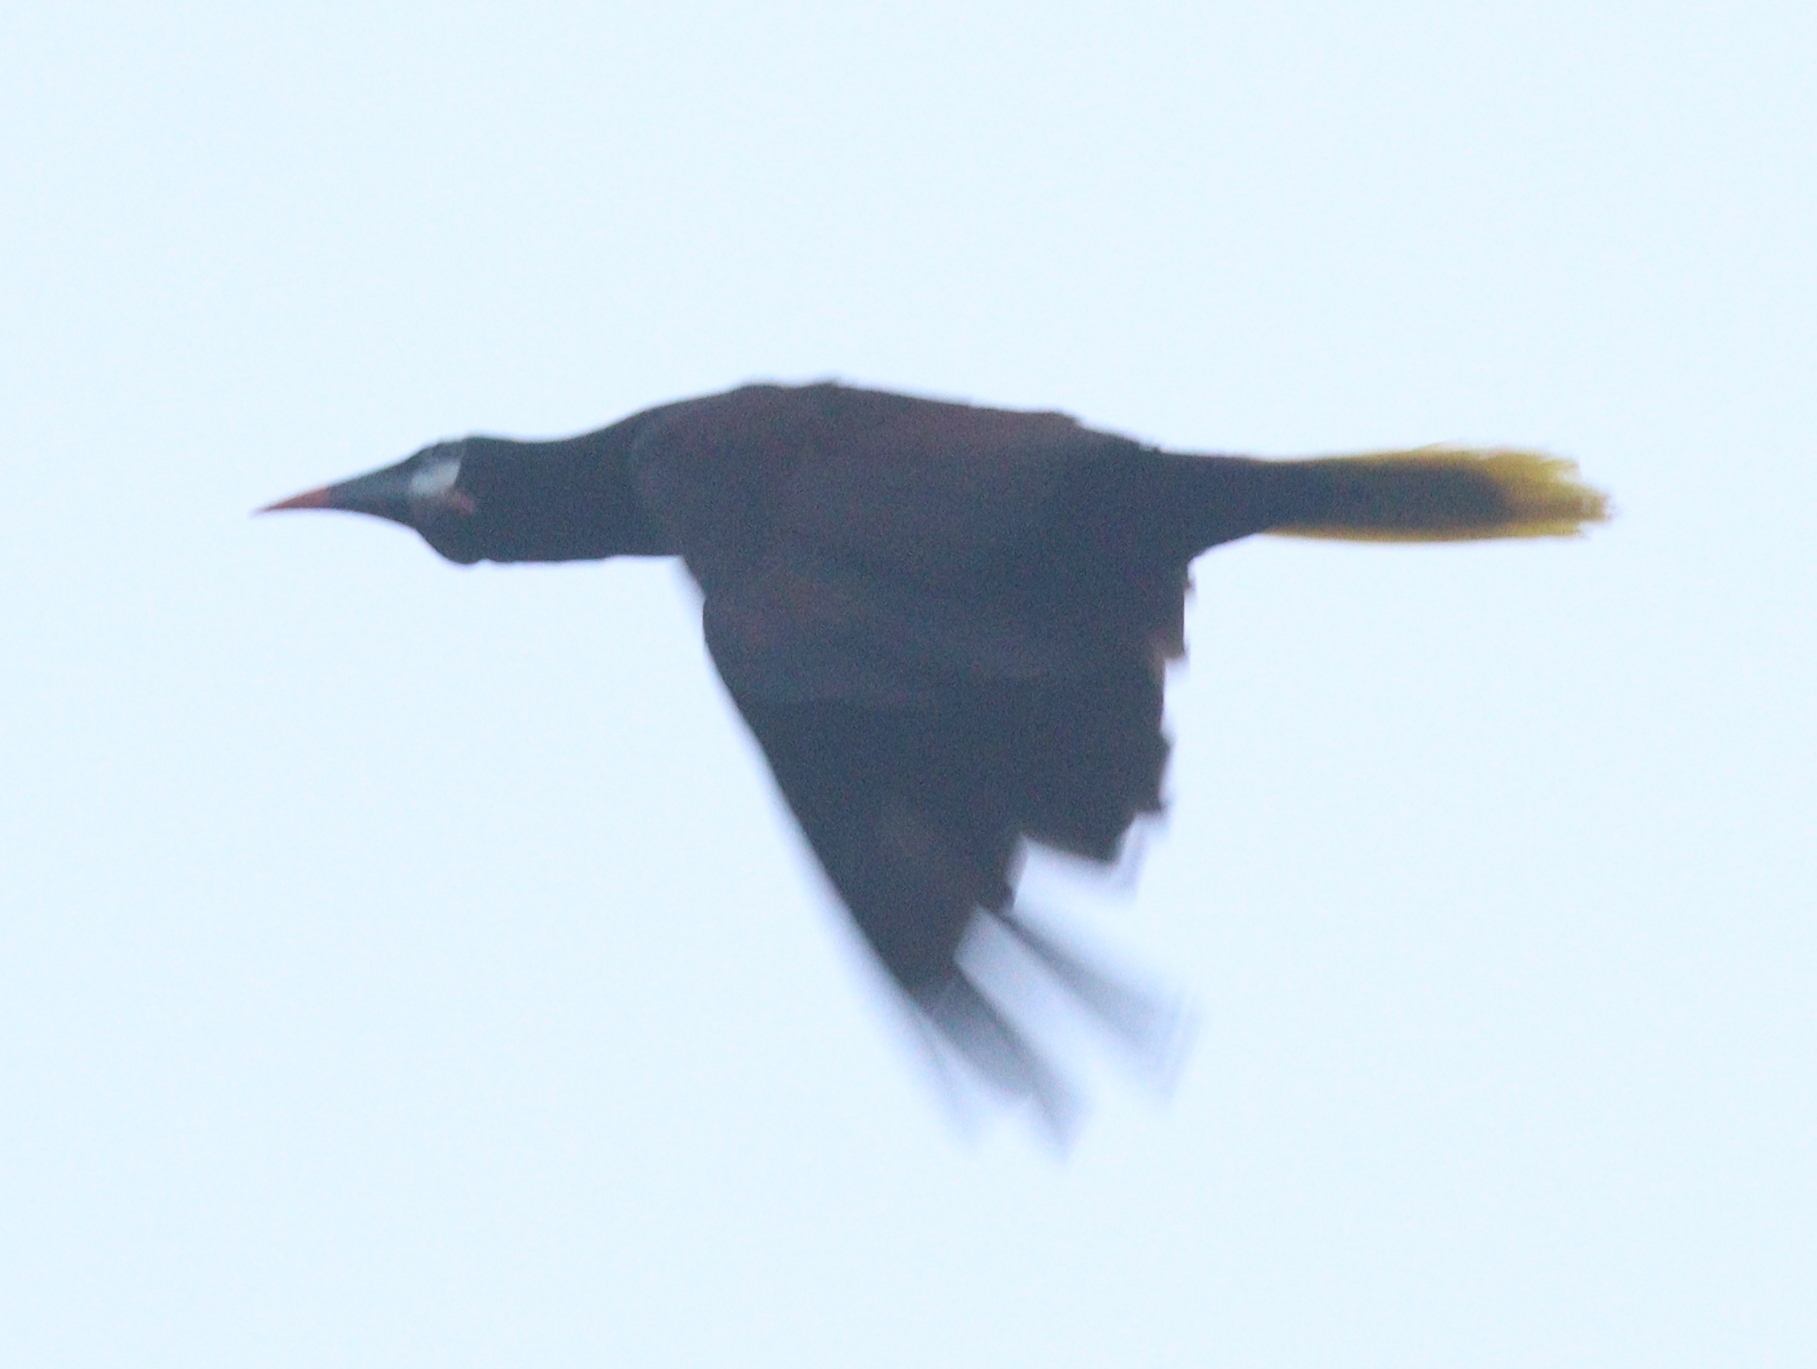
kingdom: Animalia
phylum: Chordata
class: Aves
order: Passeriformes
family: Icteridae
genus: Psarocolius
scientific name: Psarocolius montezuma
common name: Montezuma oropendola
